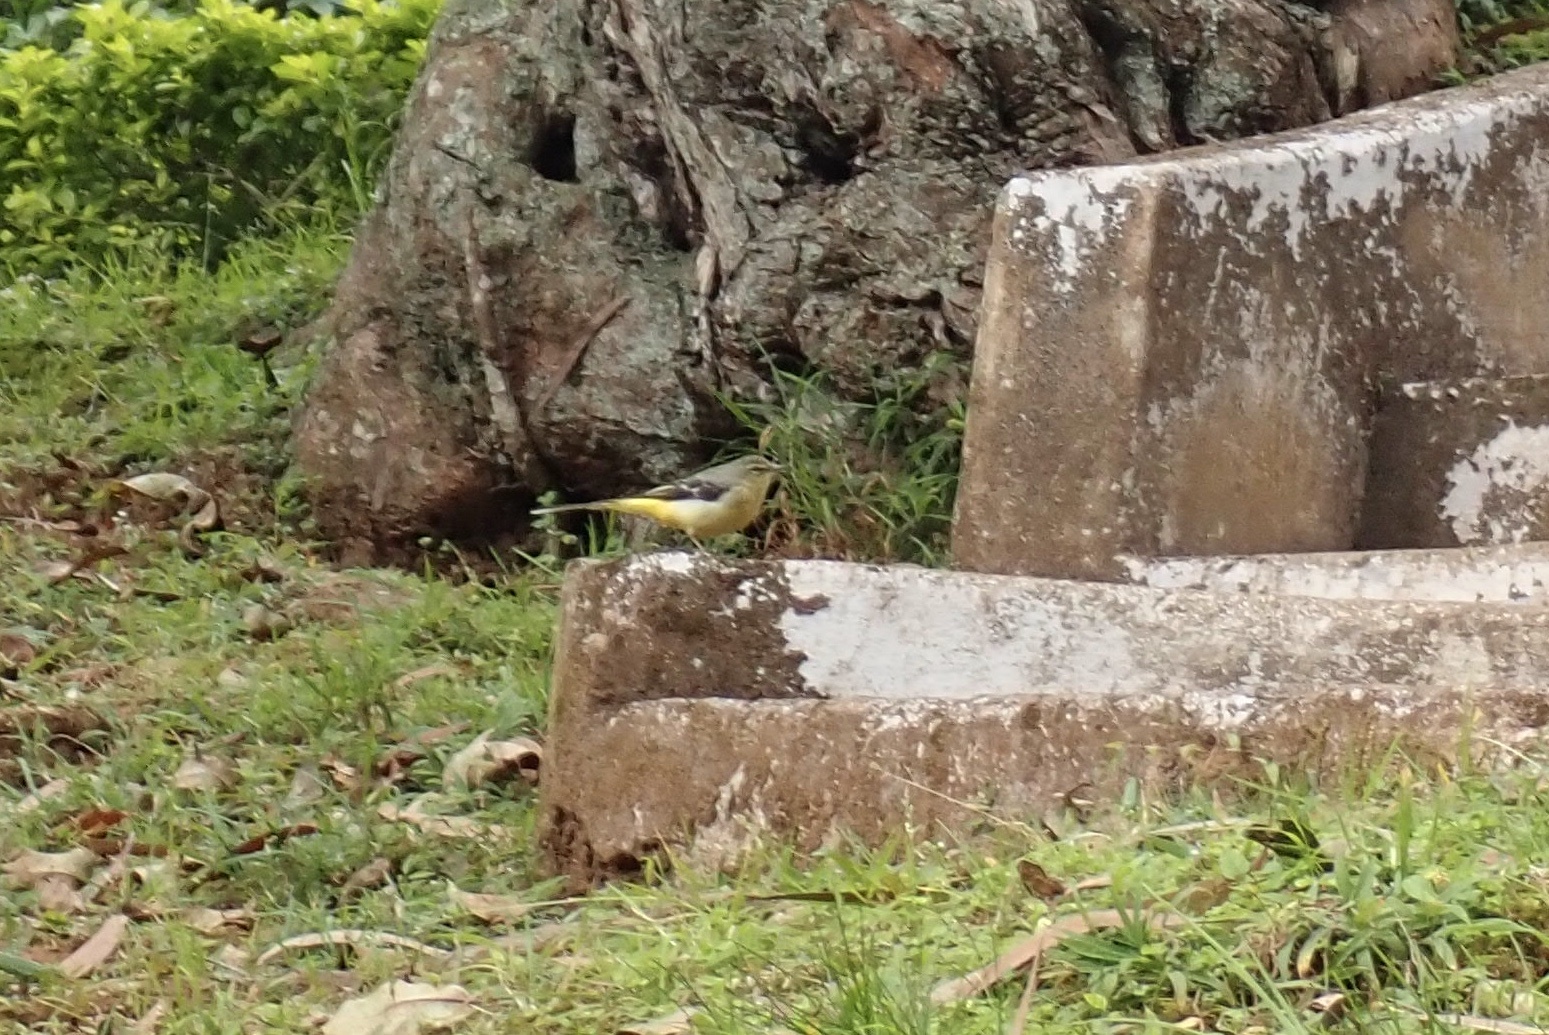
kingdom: Animalia
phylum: Chordata
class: Aves
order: Passeriformes
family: Motacillidae
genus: Motacilla
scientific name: Motacilla cinerea
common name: Grey wagtail
